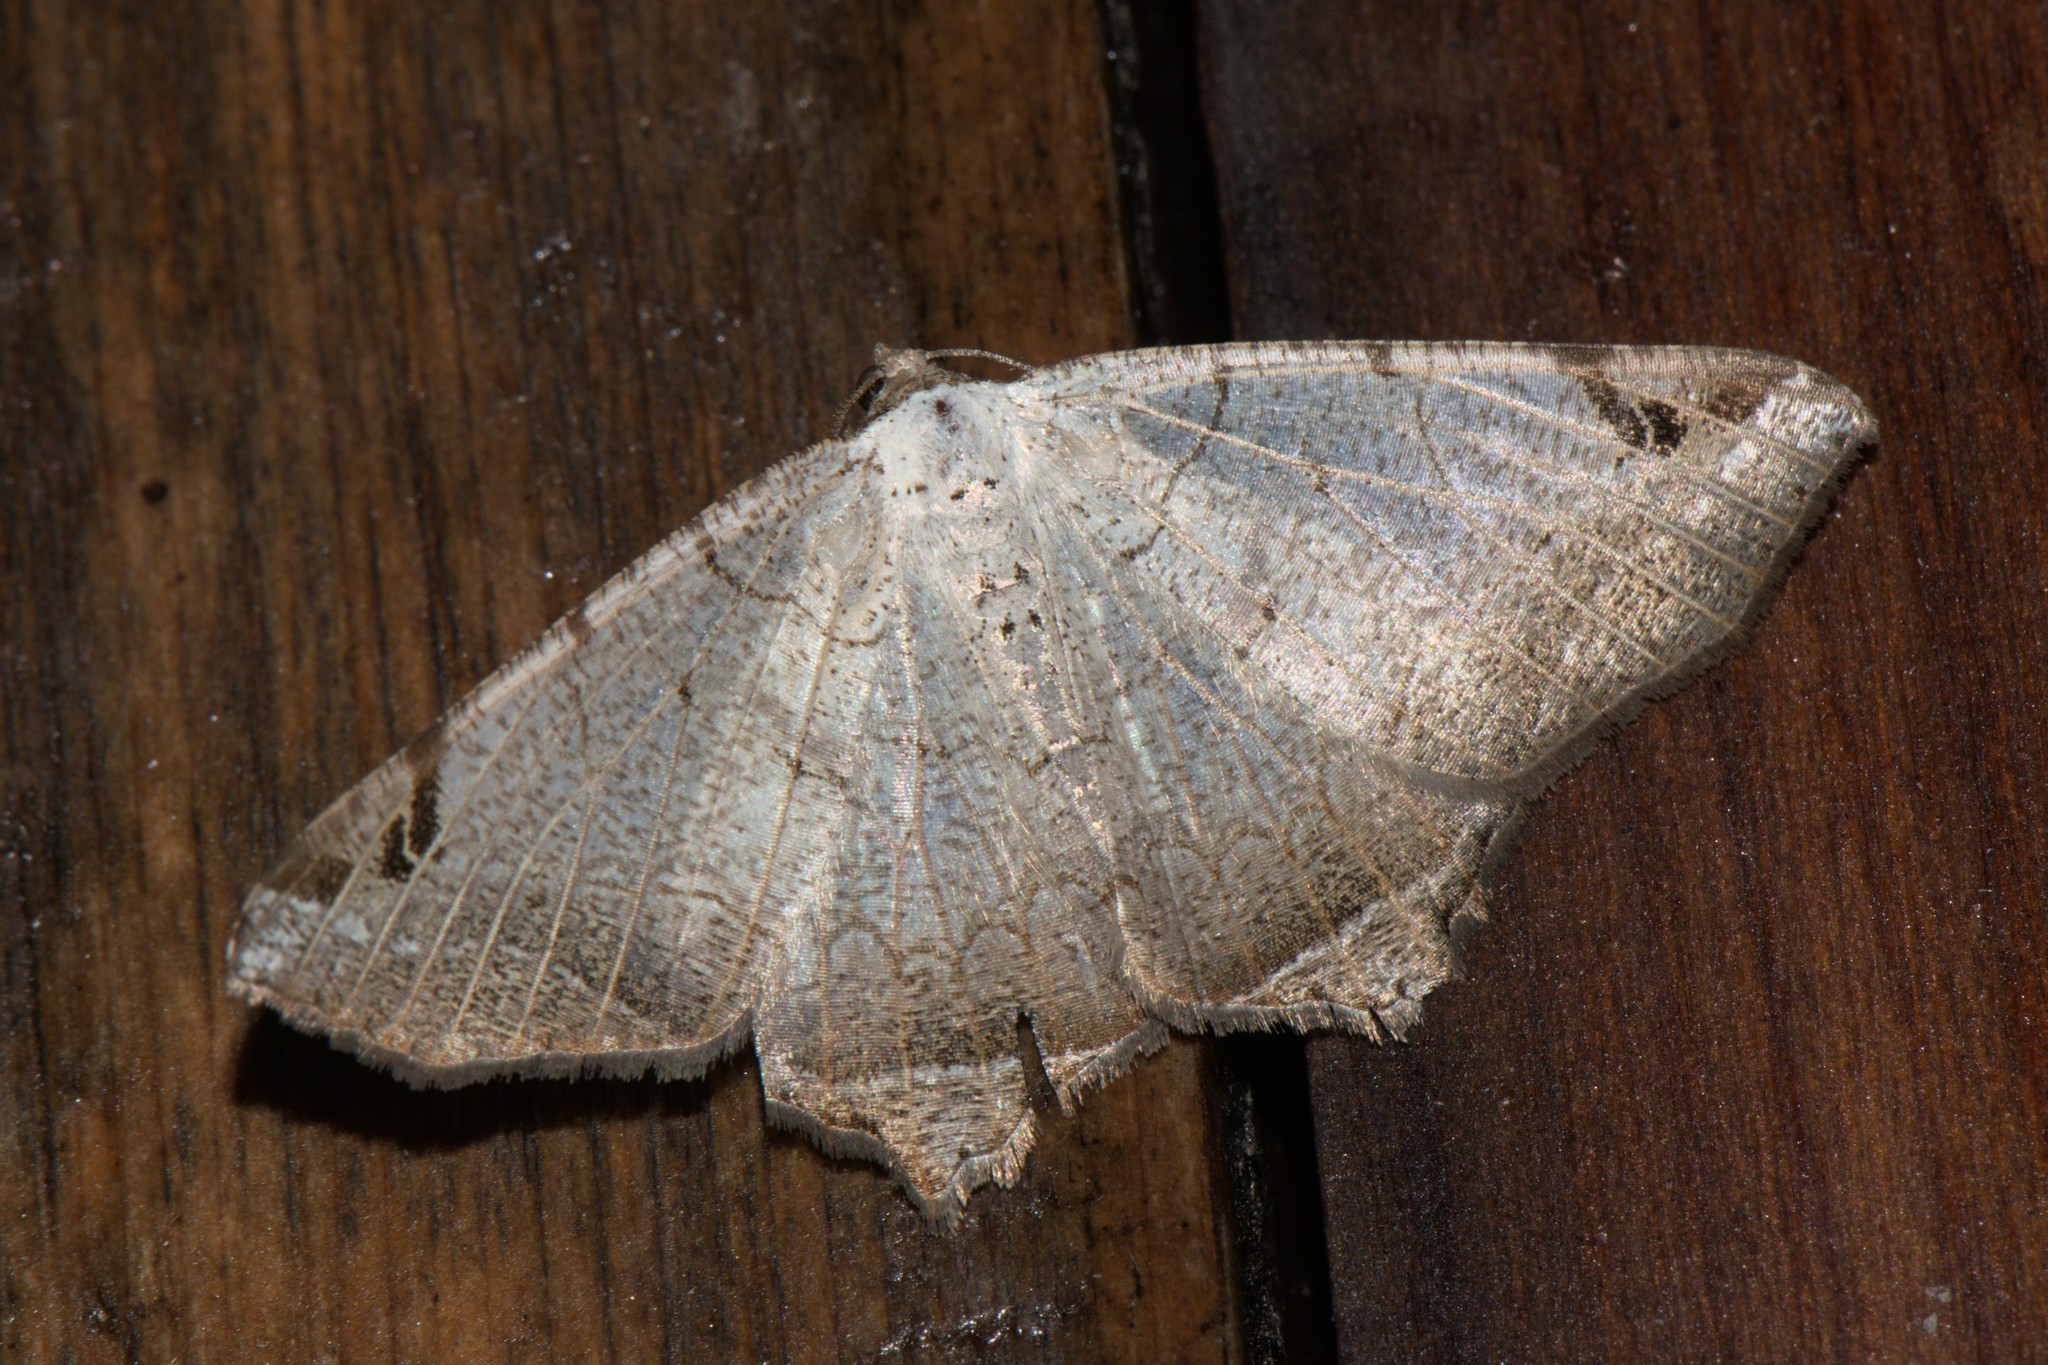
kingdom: Animalia
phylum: Arthropoda
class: Insecta
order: Lepidoptera
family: Geometridae
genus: Oxymacaria
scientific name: Oxymacaria penumbrata
